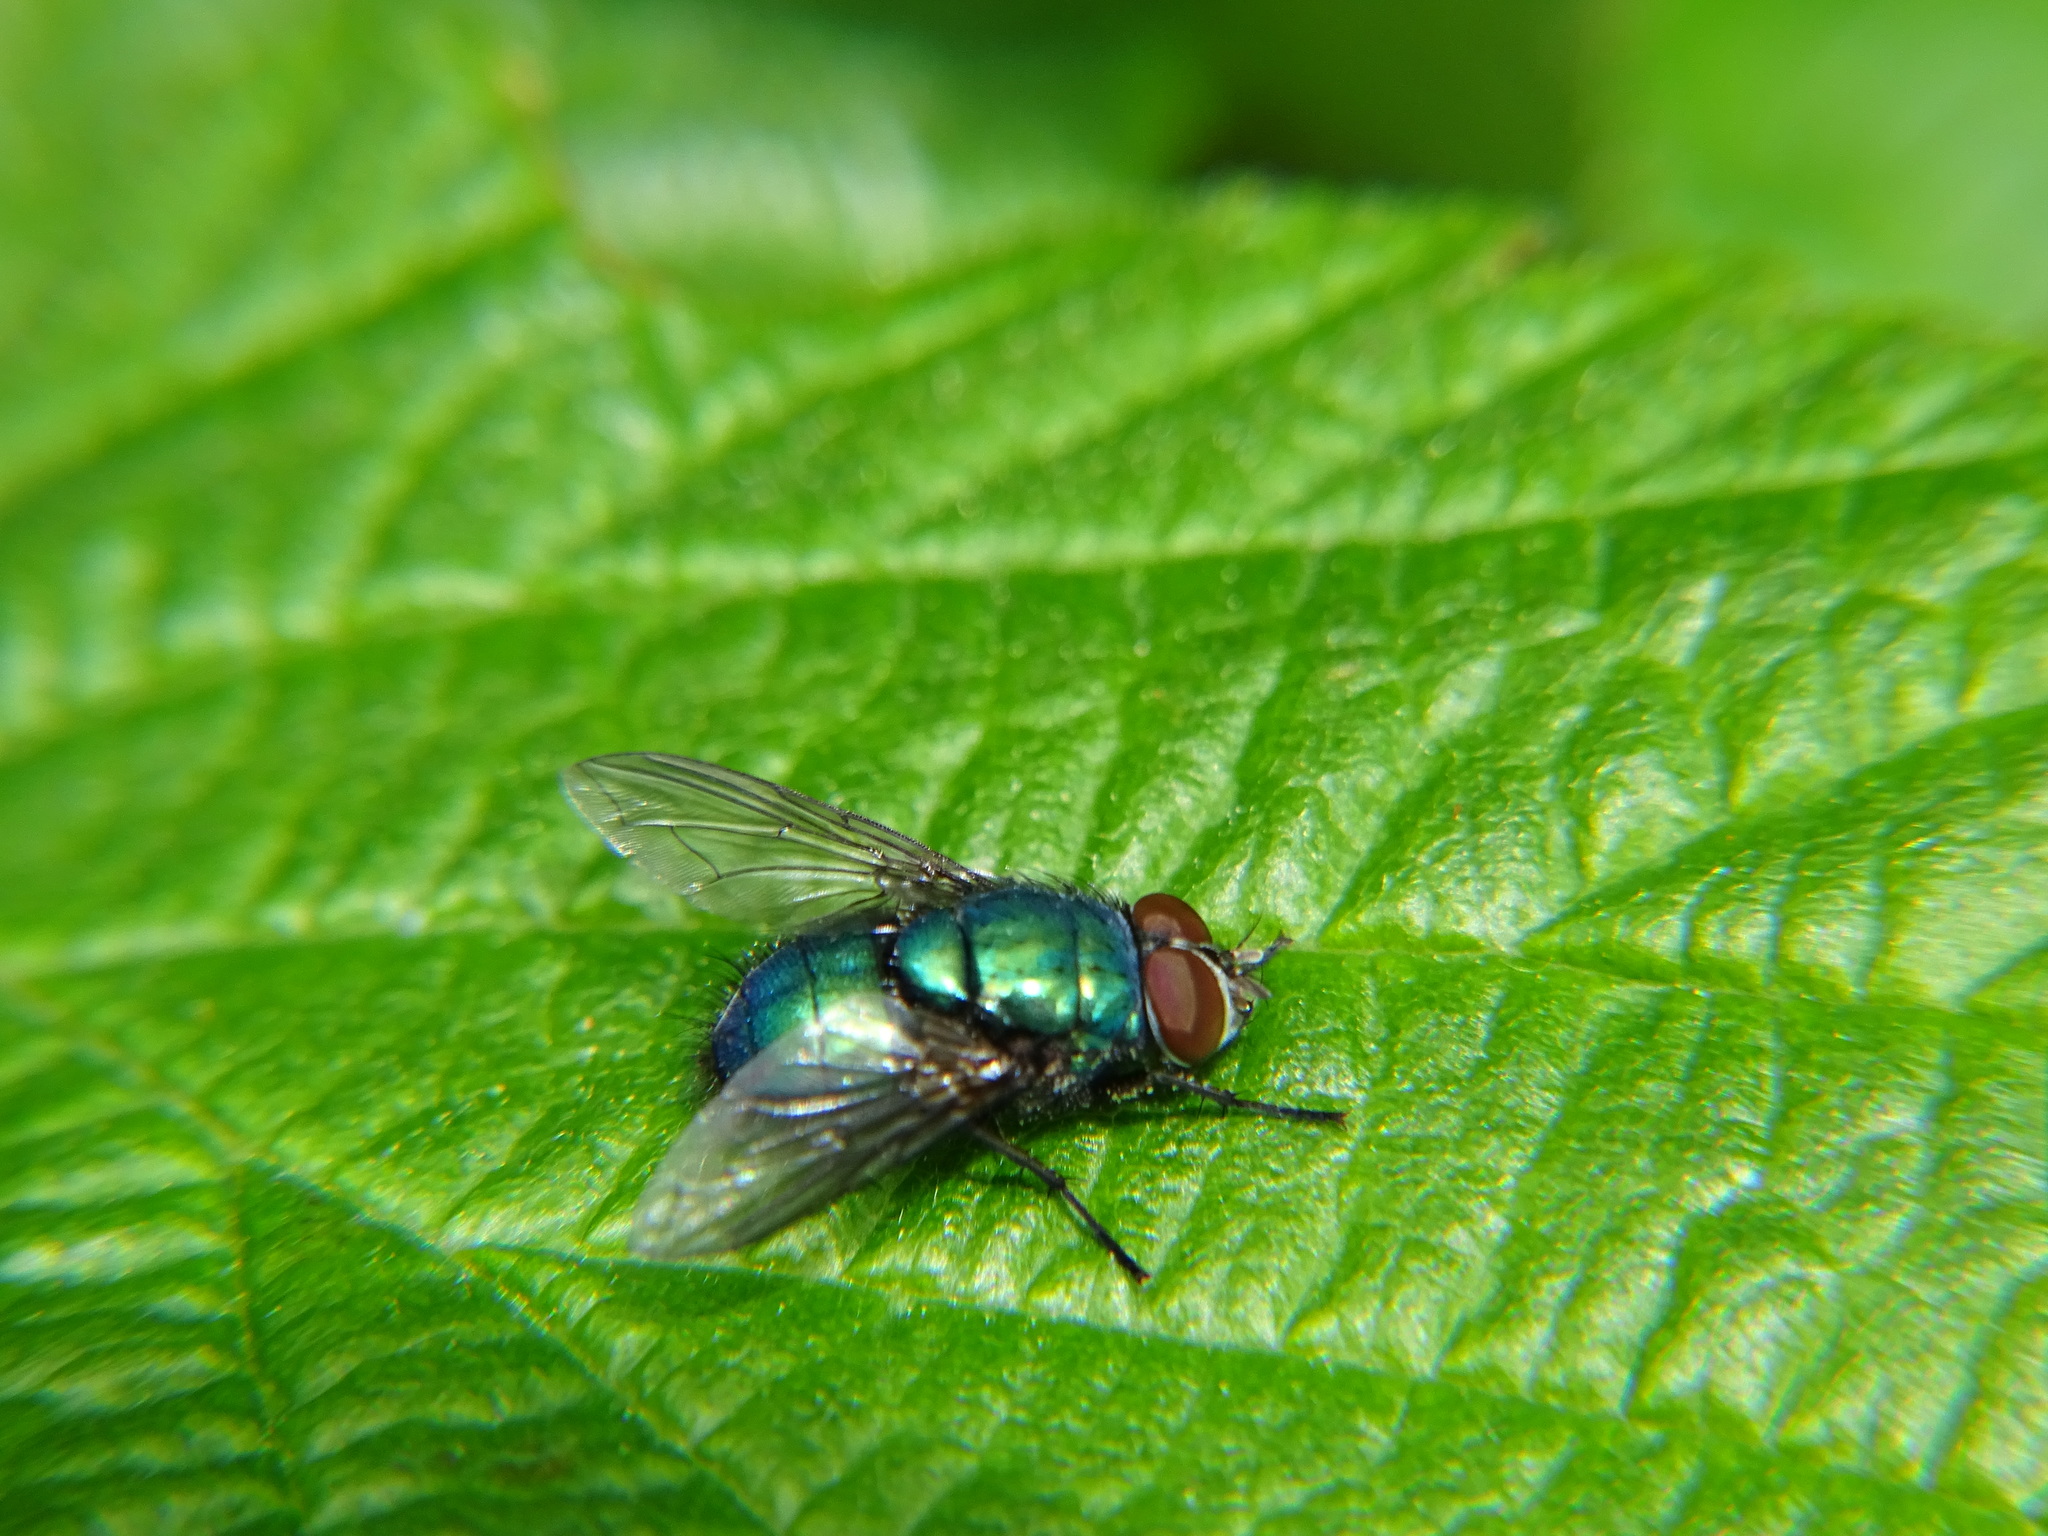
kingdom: Animalia
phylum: Arthropoda
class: Insecta
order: Diptera
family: Calliphoridae
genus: Lucilia
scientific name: Lucilia
